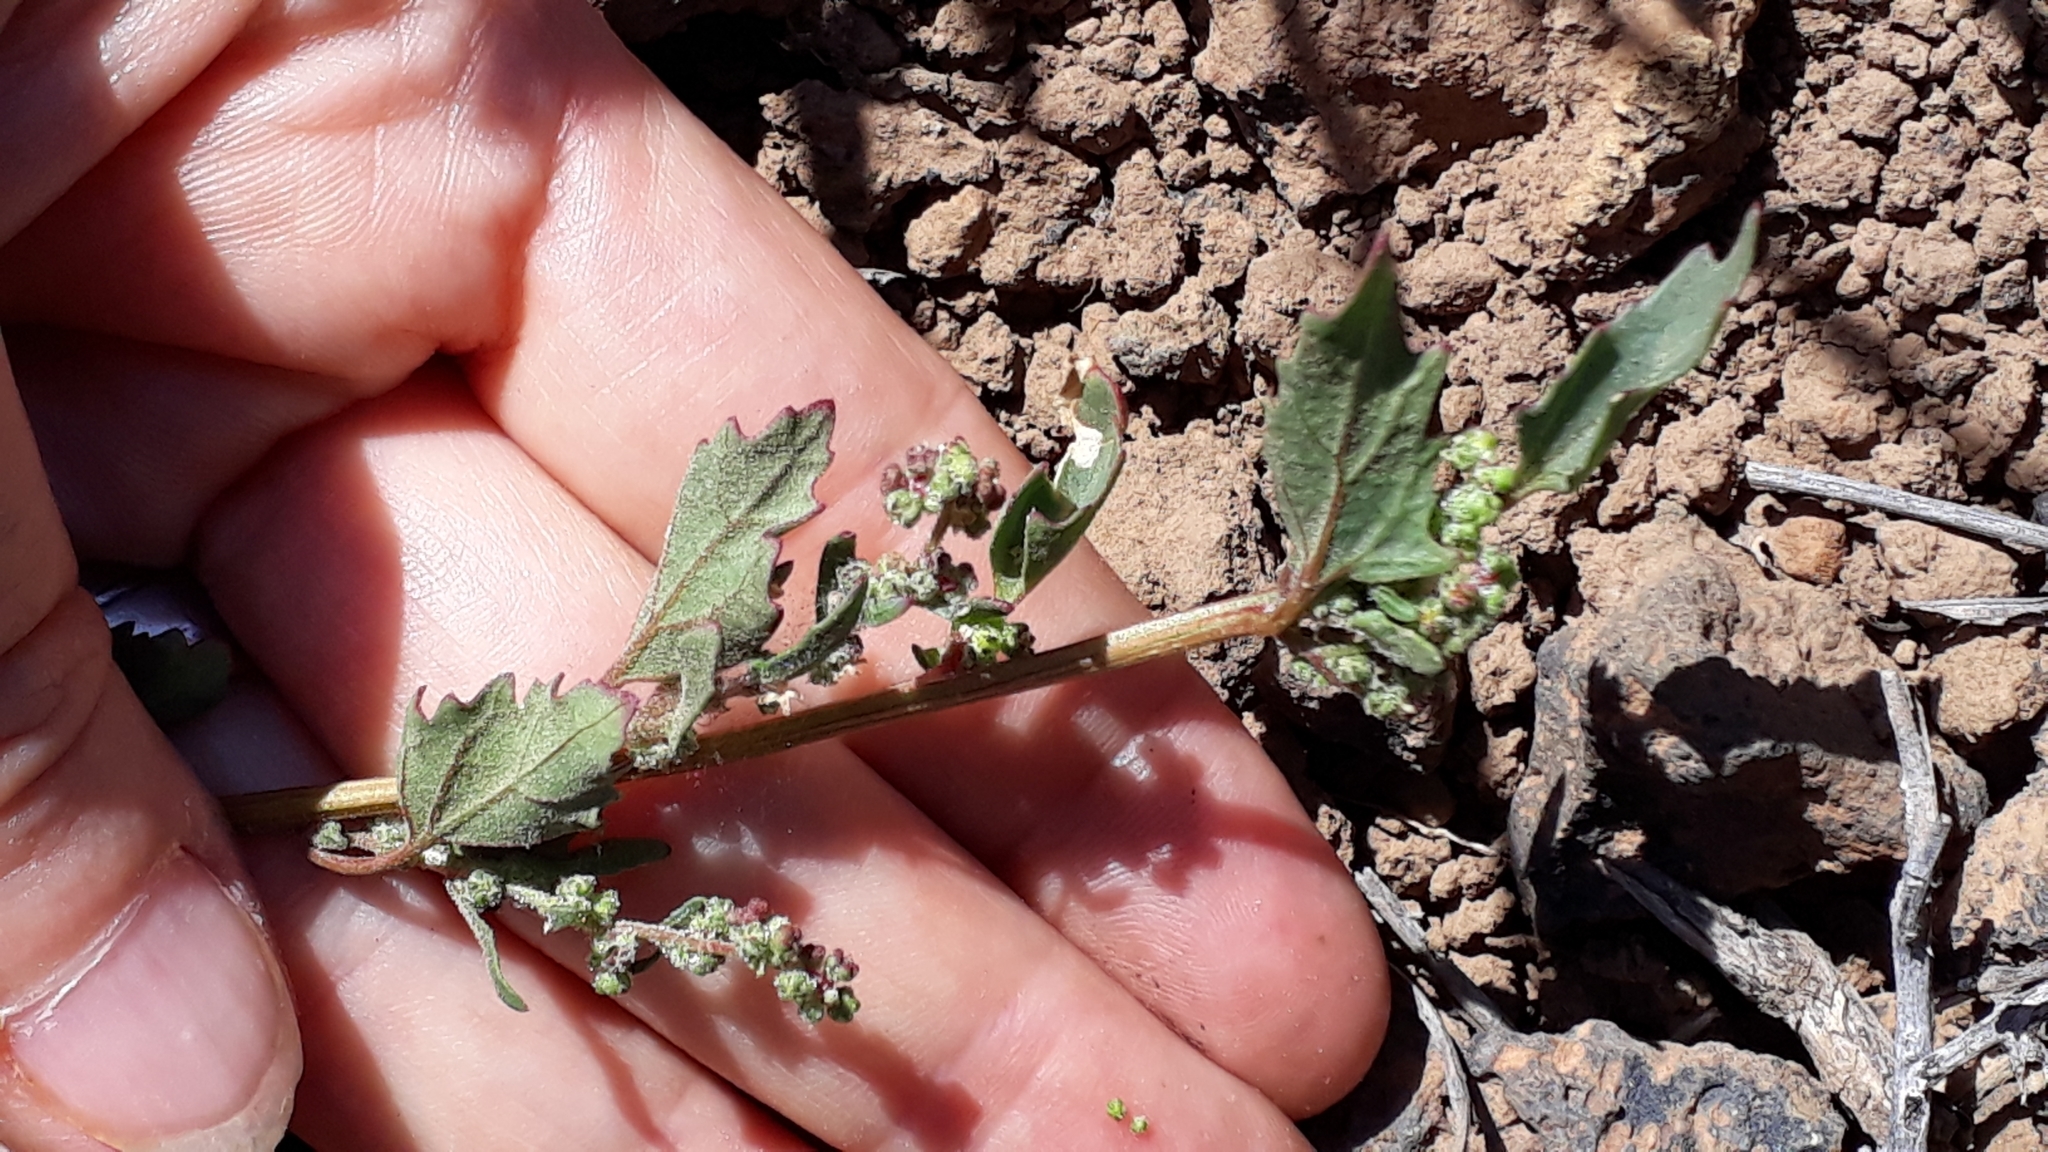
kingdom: Plantae
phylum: Tracheophyta
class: Magnoliopsida
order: Caryophyllales
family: Amaranthaceae
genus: Chenopodiastrum
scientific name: Chenopodiastrum murale
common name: Sowbane
